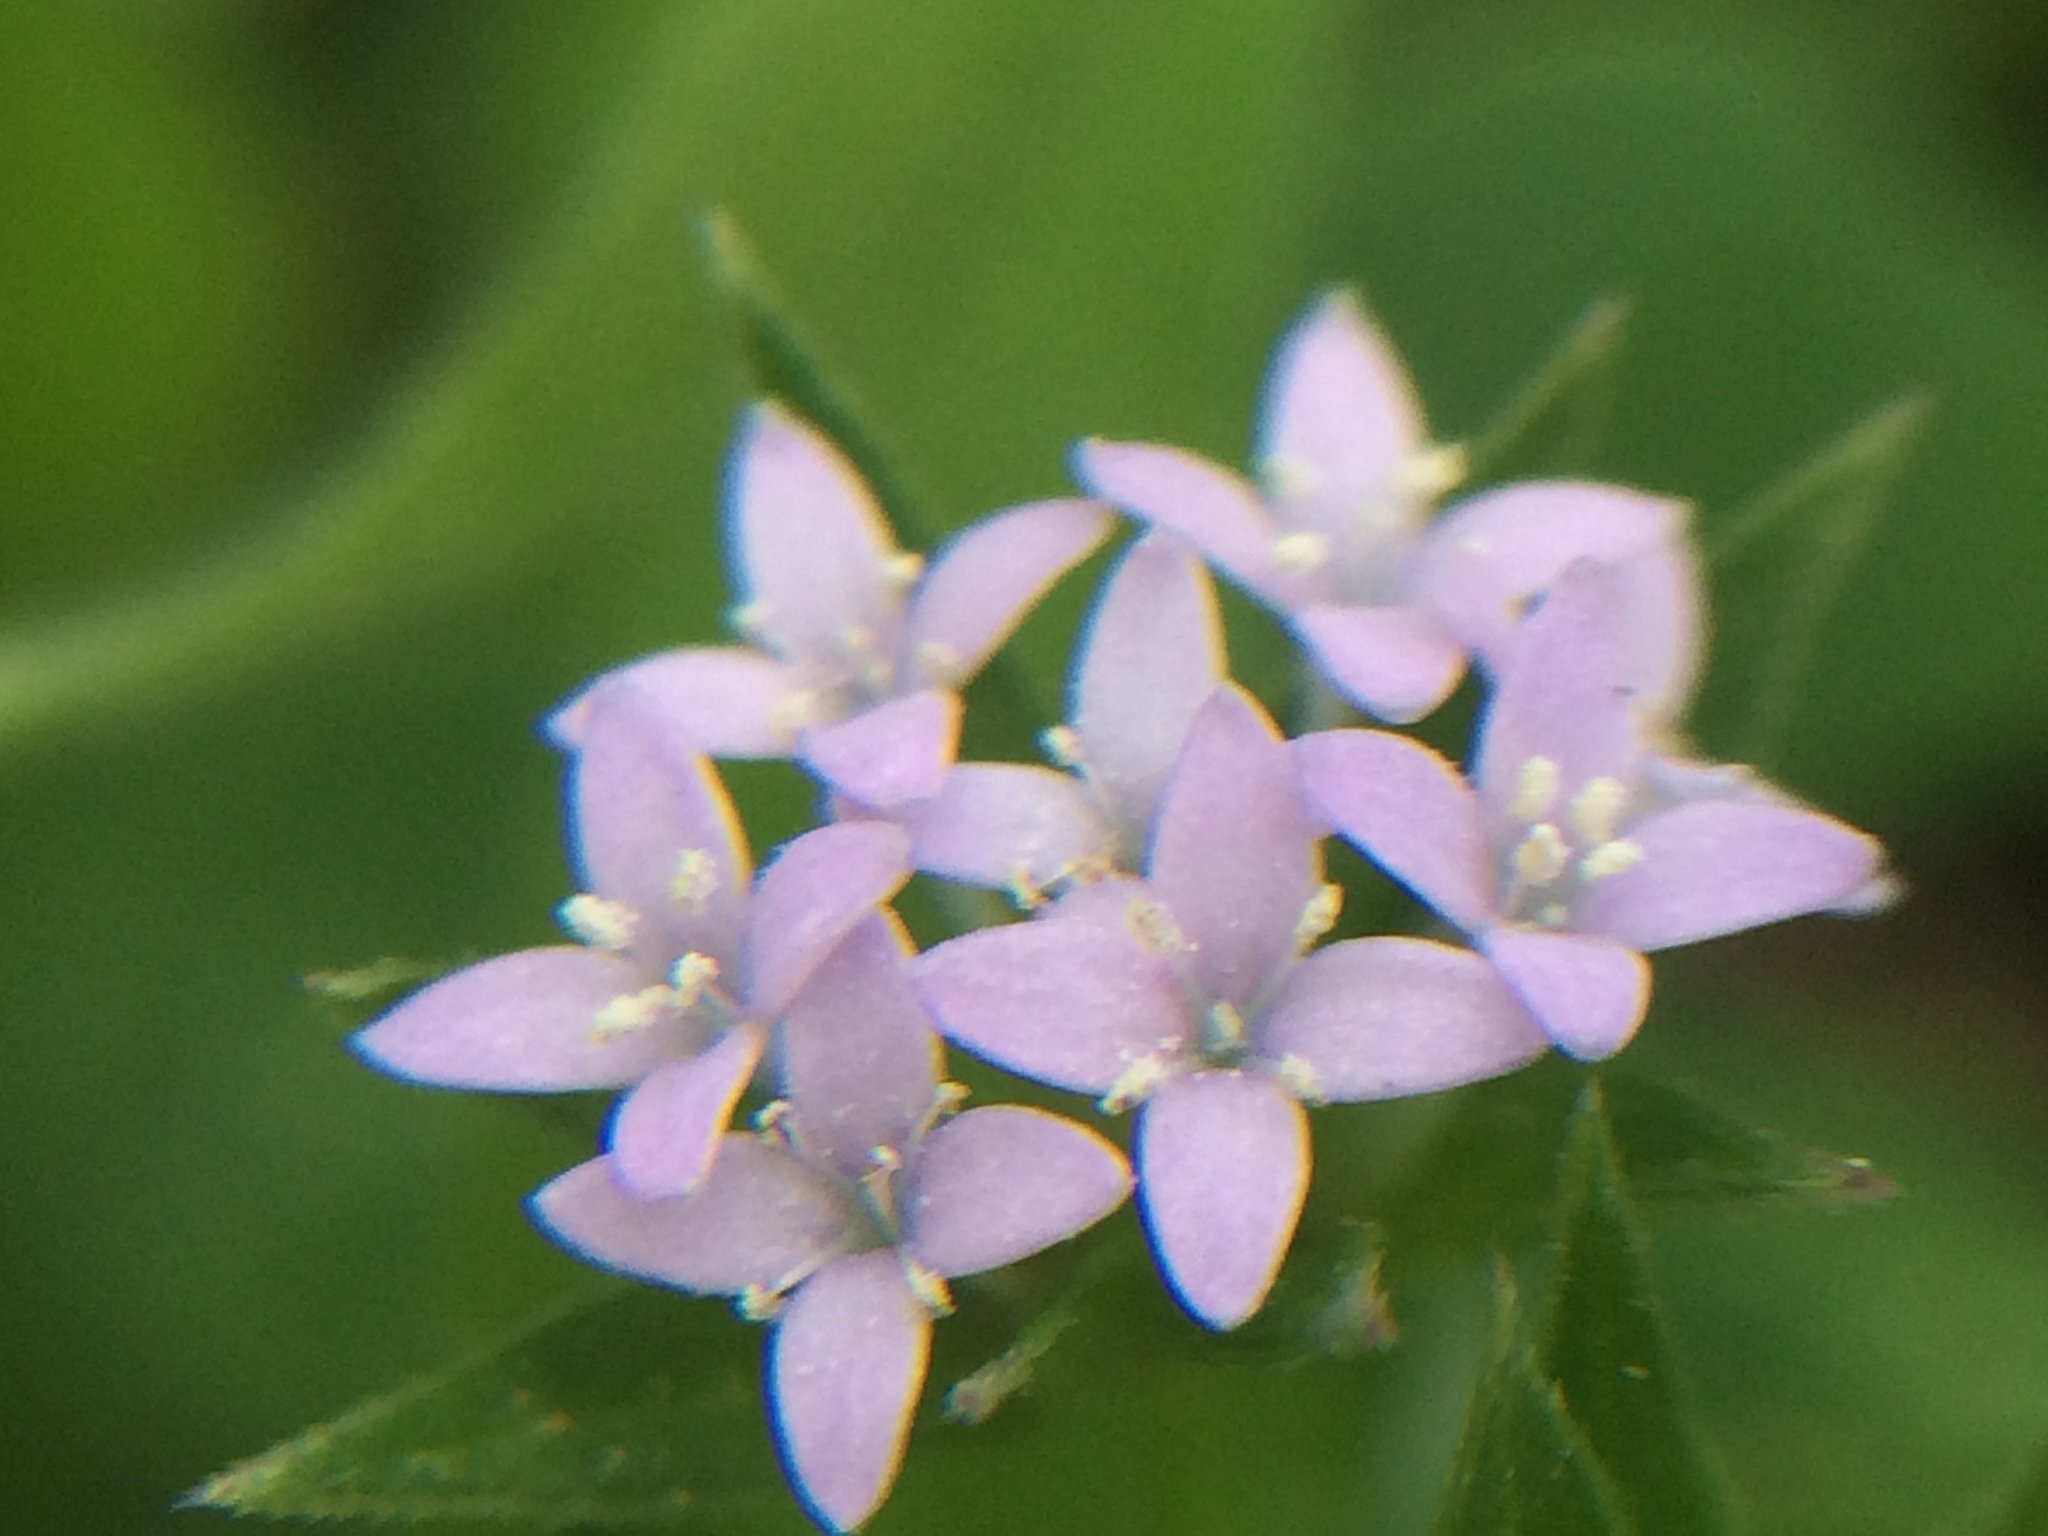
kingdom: Plantae
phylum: Tracheophyta
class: Magnoliopsida
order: Gentianales
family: Rubiaceae
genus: Sherardia
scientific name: Sherardia arvensis
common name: Field madder
